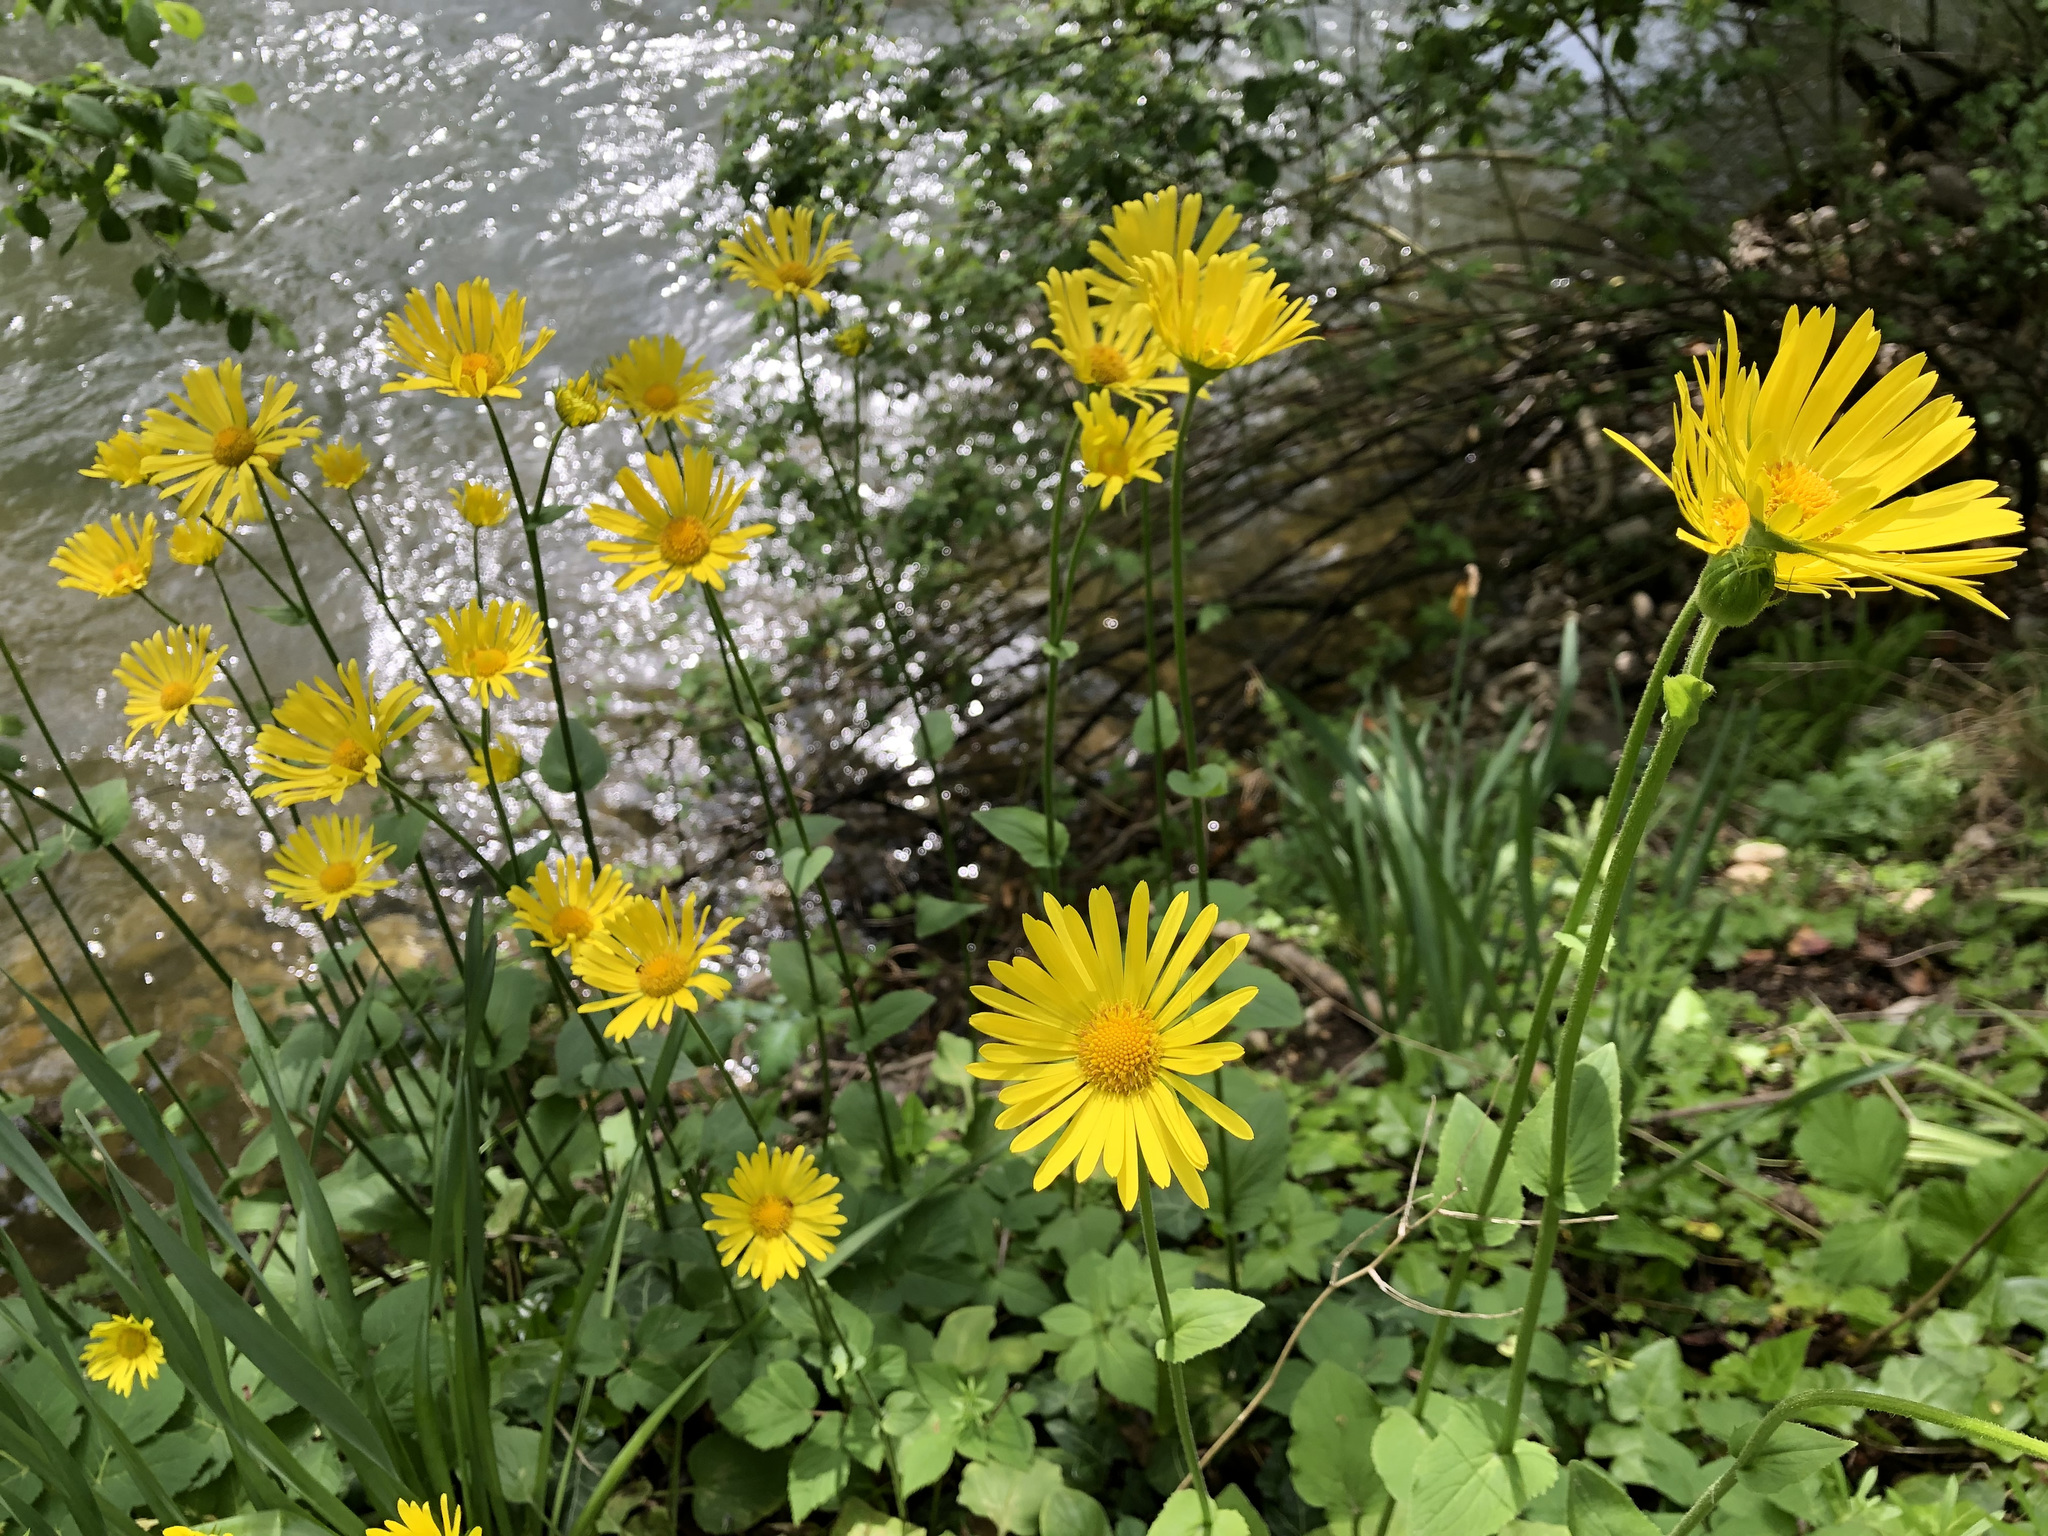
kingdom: Plantae
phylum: Tracheophyta
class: Magnoliopsida
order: Asterales
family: Asteraceae
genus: Doronicum
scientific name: Doronicum pardalianches
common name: Leopard's-bane
